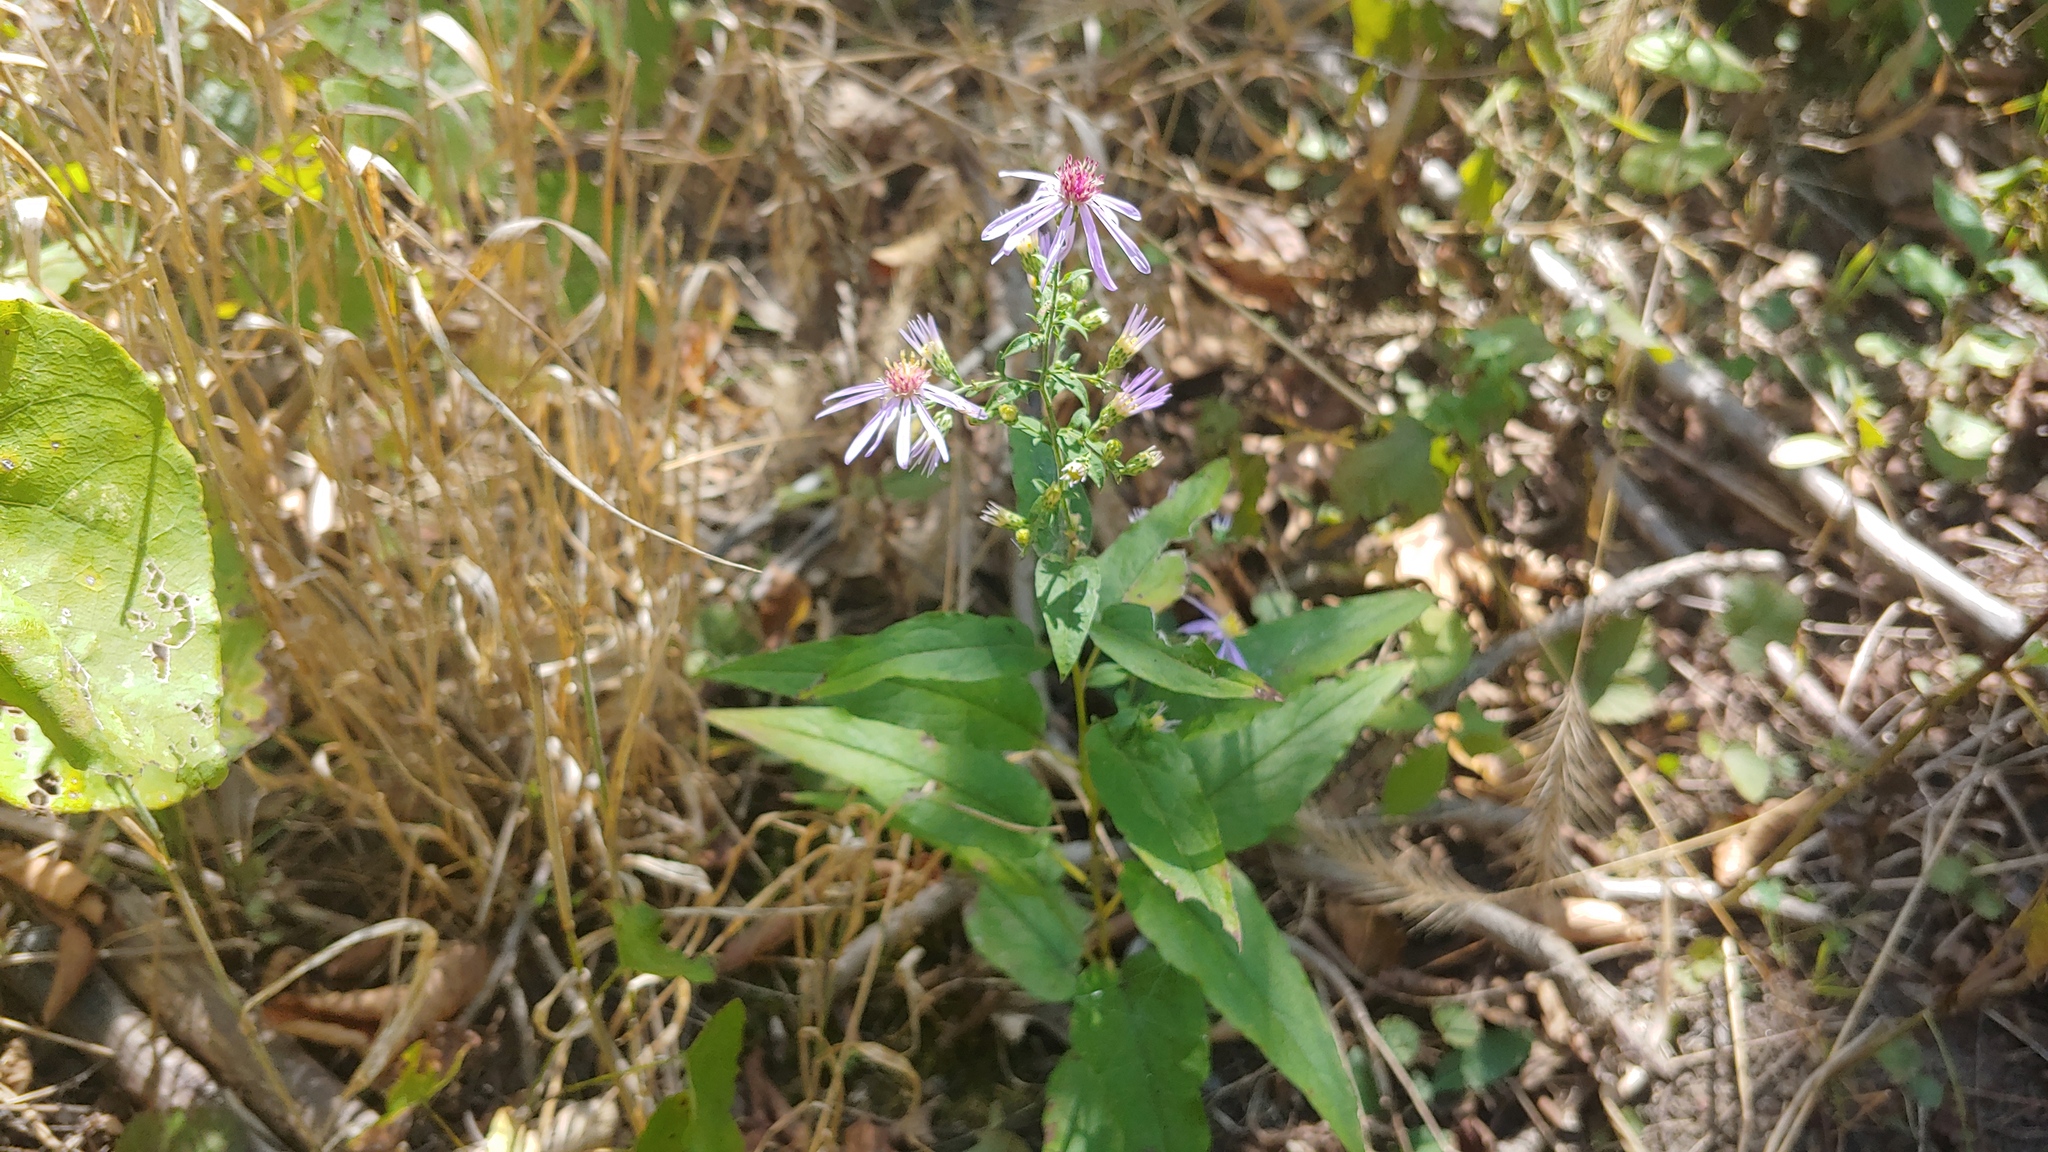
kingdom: Plantae
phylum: Tracheophyta
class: Magnoliopsida
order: Asterales
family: Asteraceae
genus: Symphyotrichum
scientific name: Symphyotrichum shortii
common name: Short's aster
